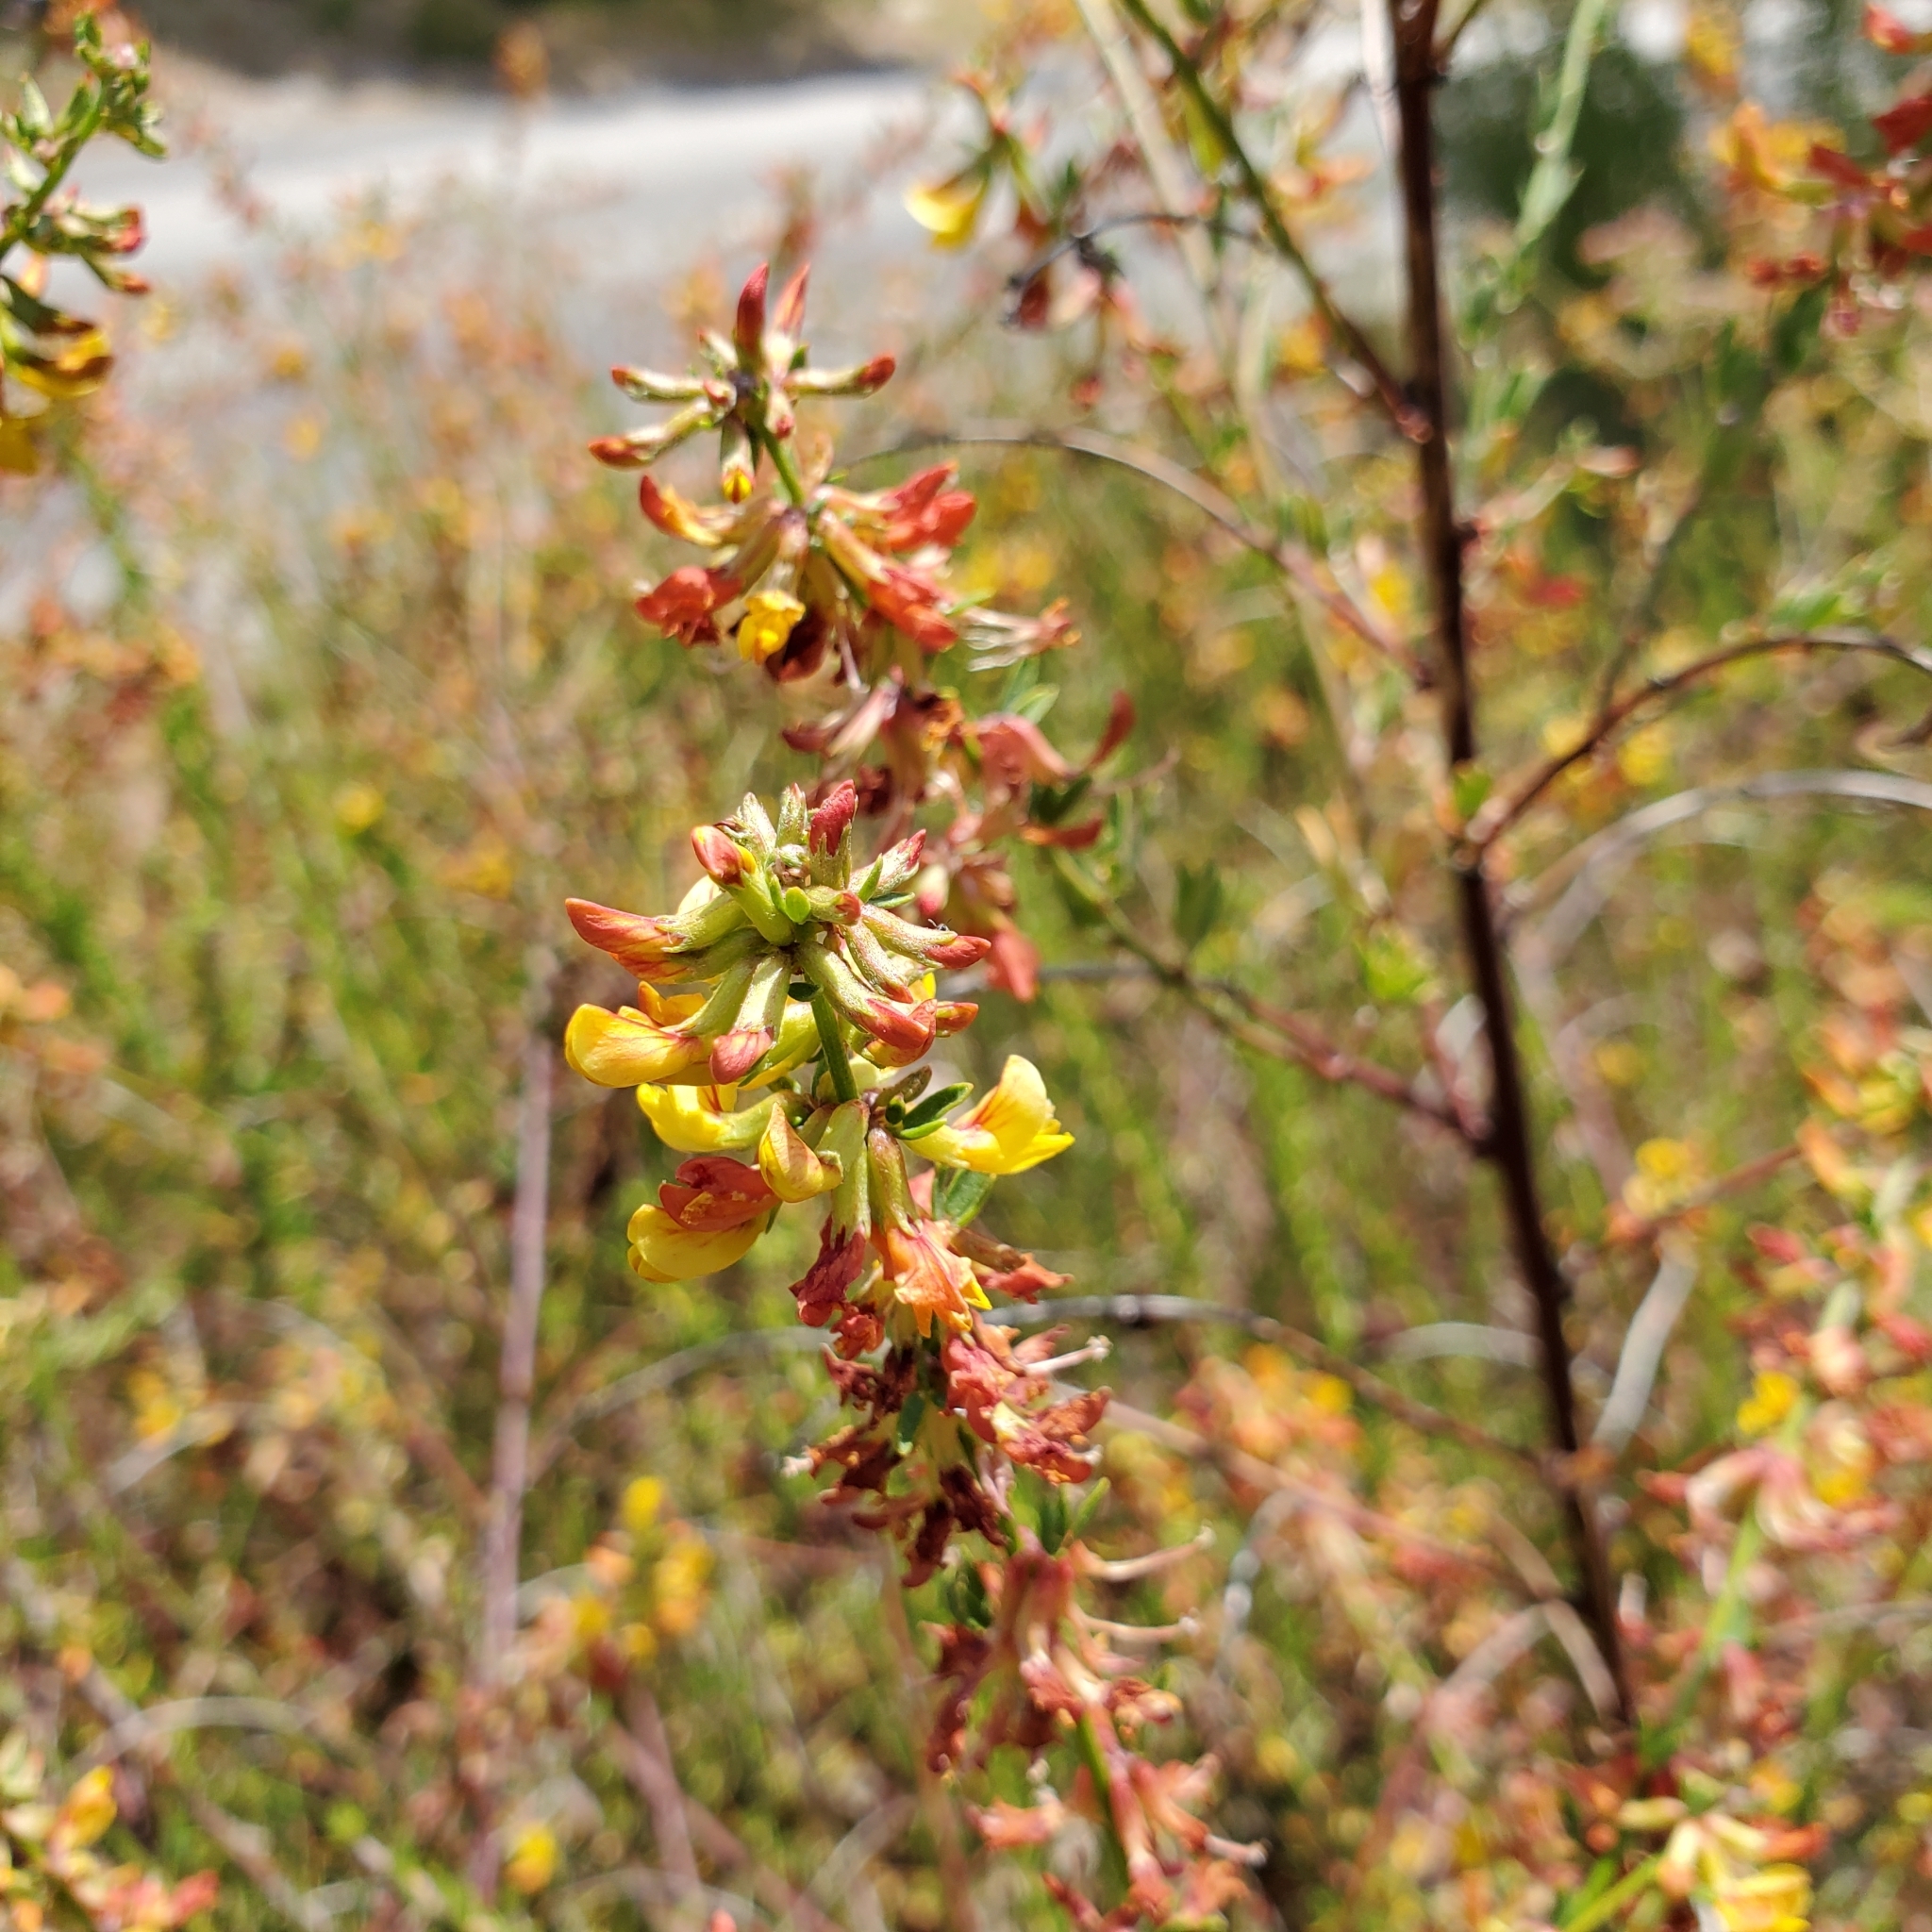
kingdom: Plantae
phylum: Tracheophyta
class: Magnoliopsida
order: Fabales
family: Fabaceae
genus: Acmispon
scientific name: Acmispon glaber
